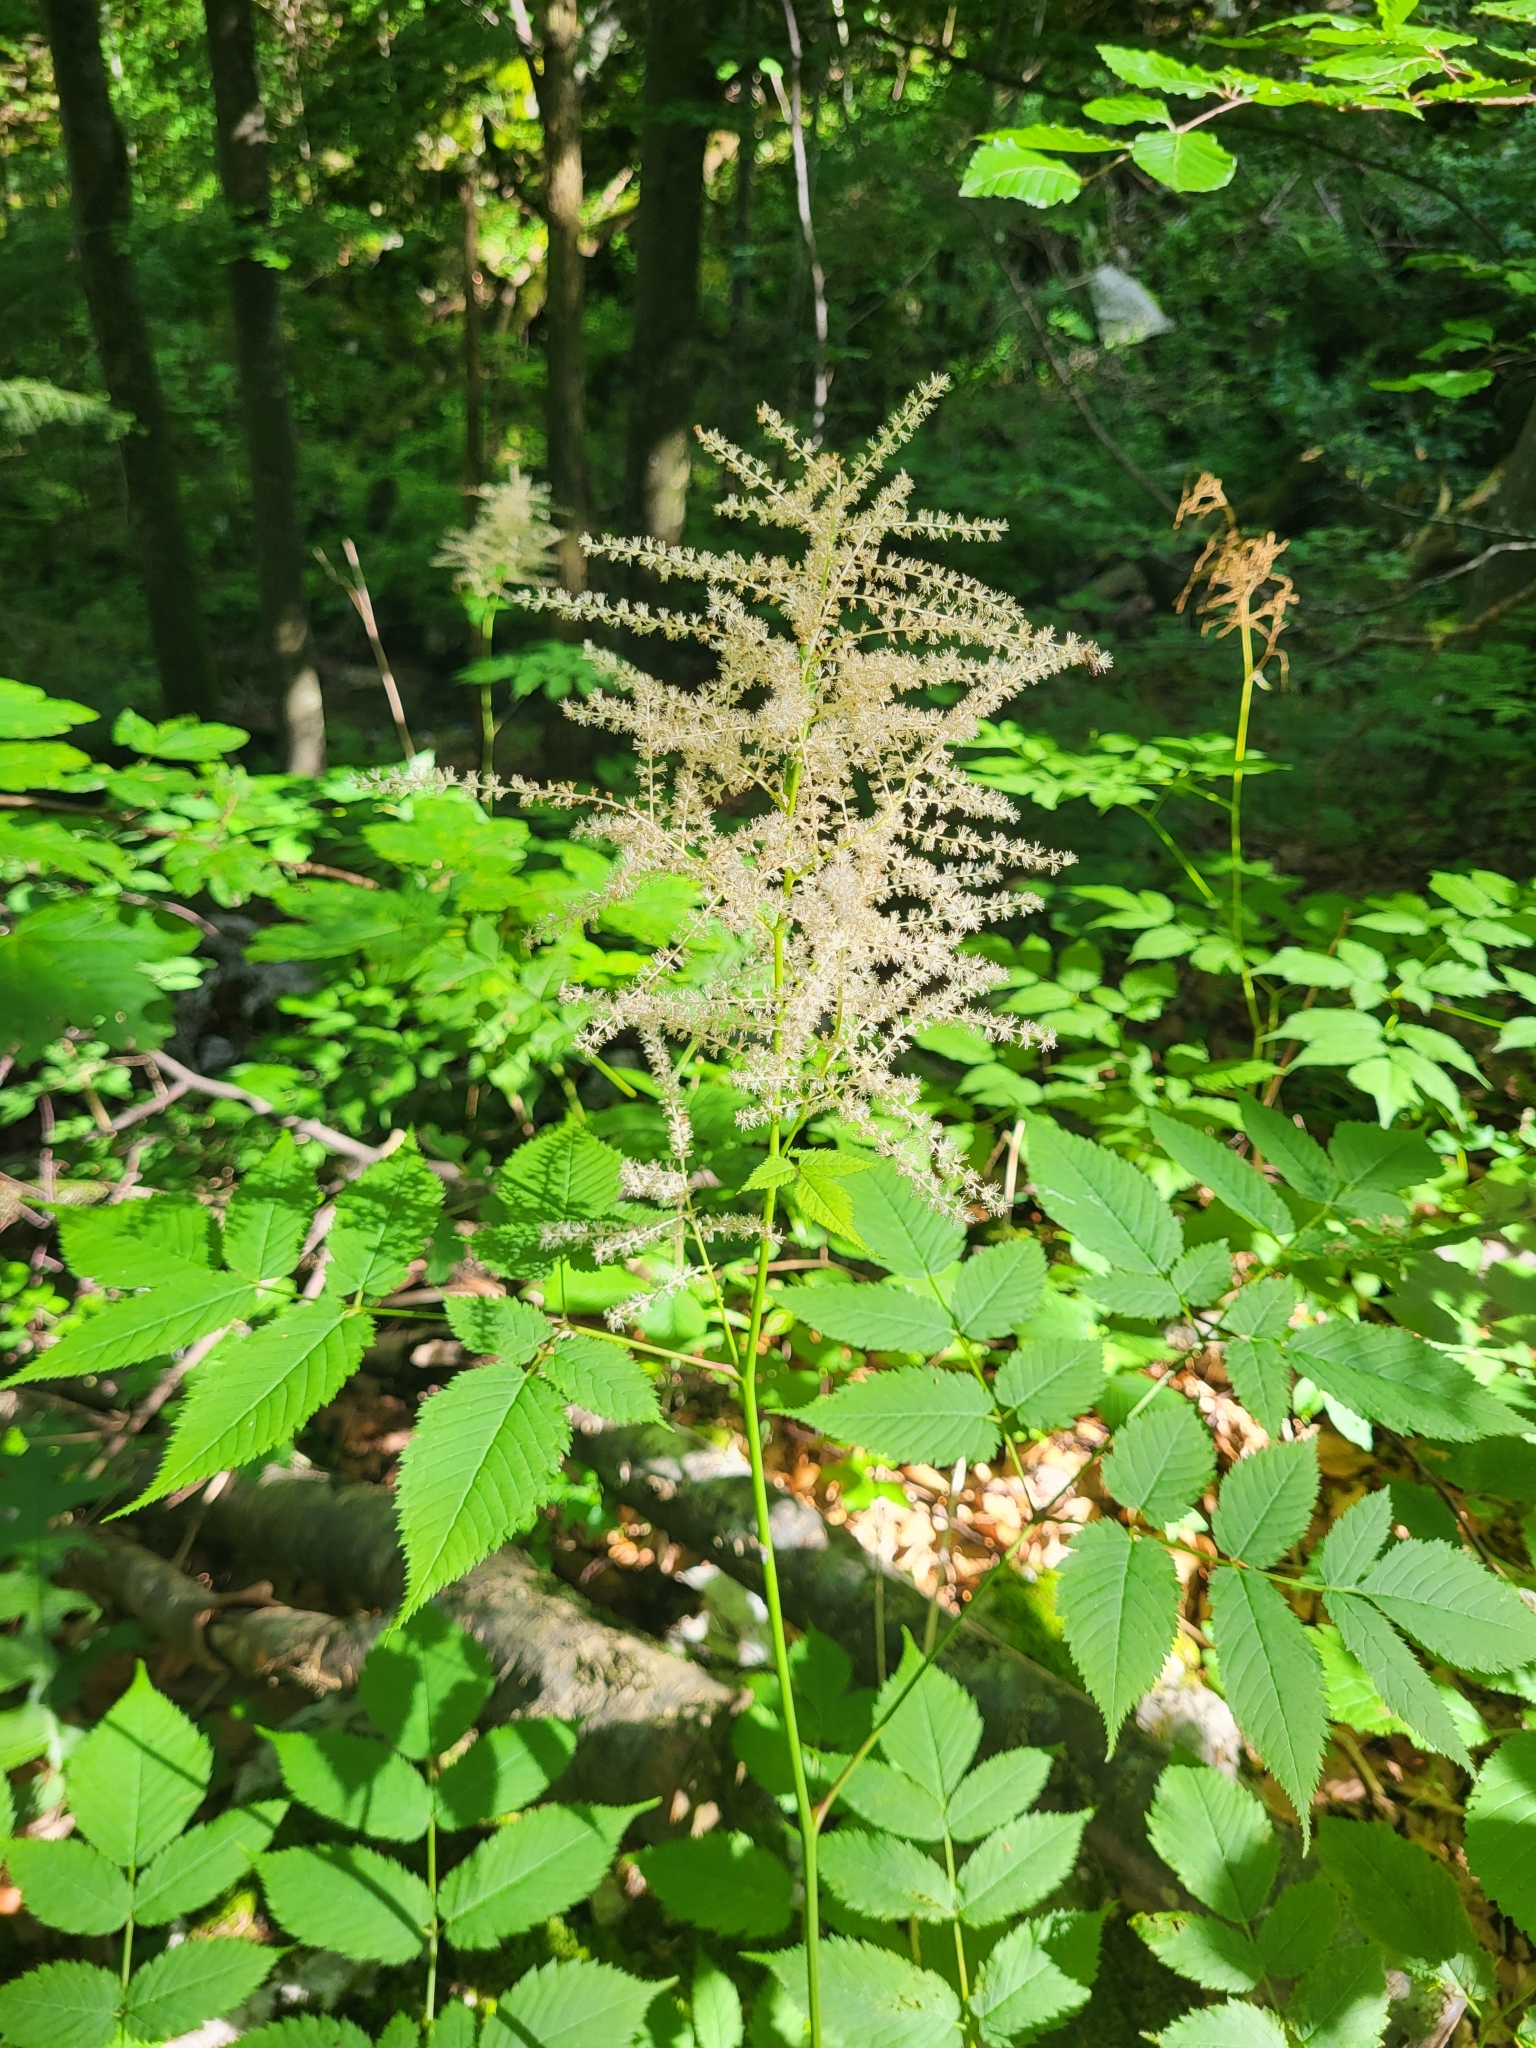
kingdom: Plantae
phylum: Tracheophyta
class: Magnoliopsida
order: Rosales
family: Rosaceae
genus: Aruncus
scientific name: Aruncus dioicus
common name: Buck's-beard
